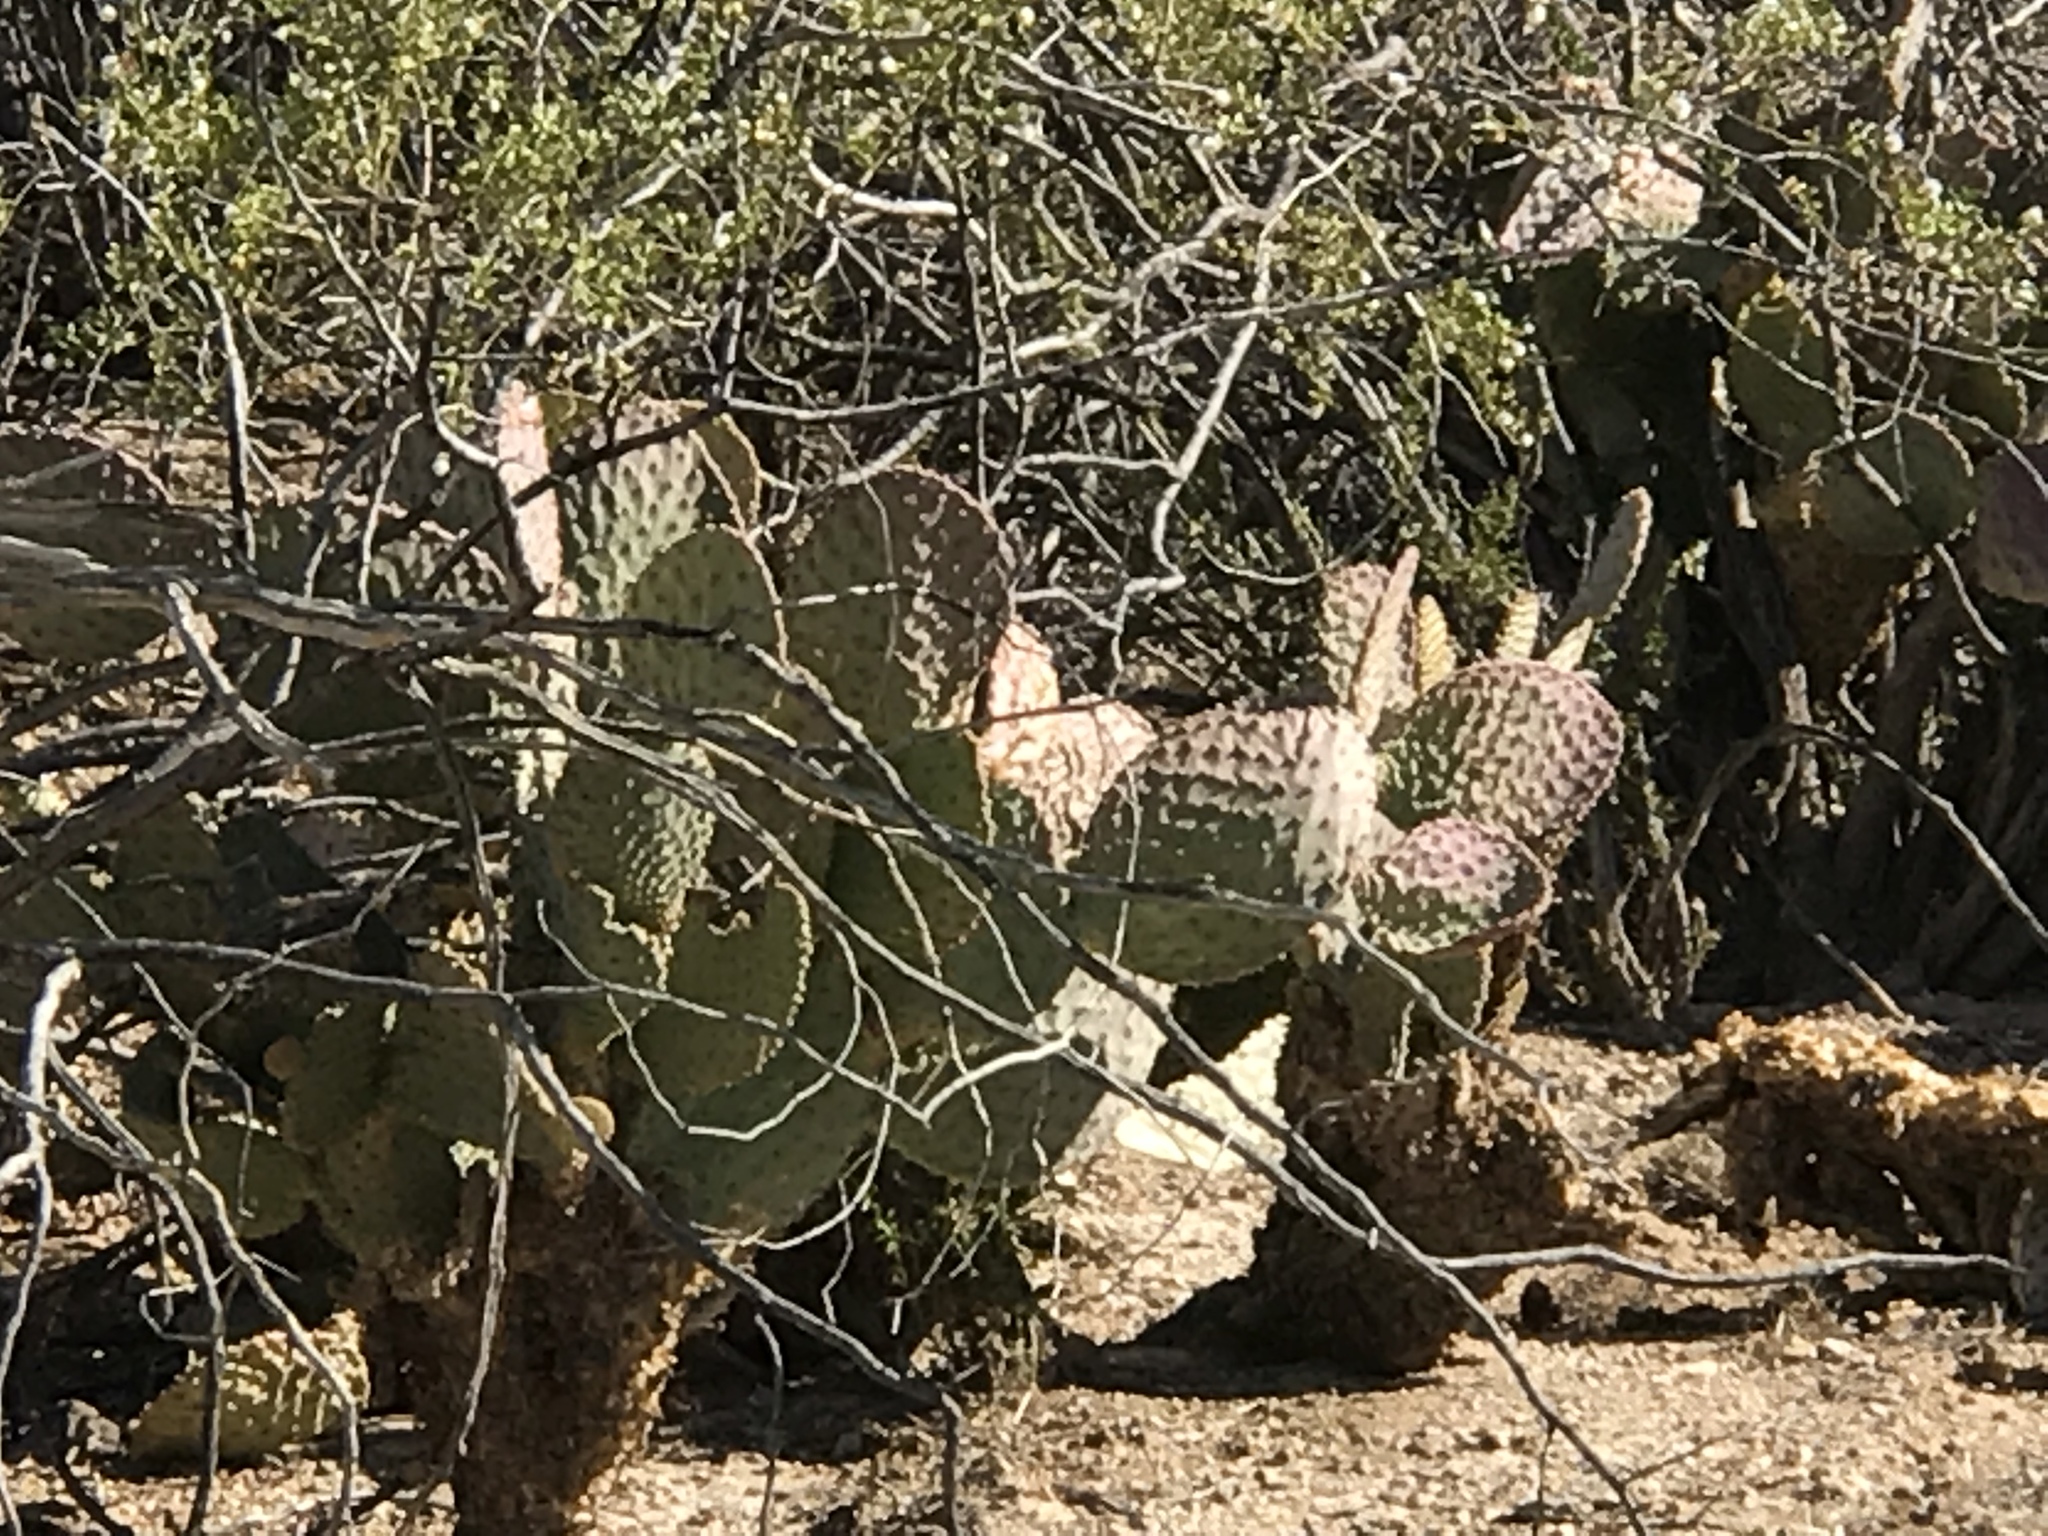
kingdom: Plantae
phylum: Tracheophyta
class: Magnoliopsida
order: Caryophyllales
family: Cactaceae
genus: Opuntia
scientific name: Opuntia gosseliniana
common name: Violet prickly-pear
